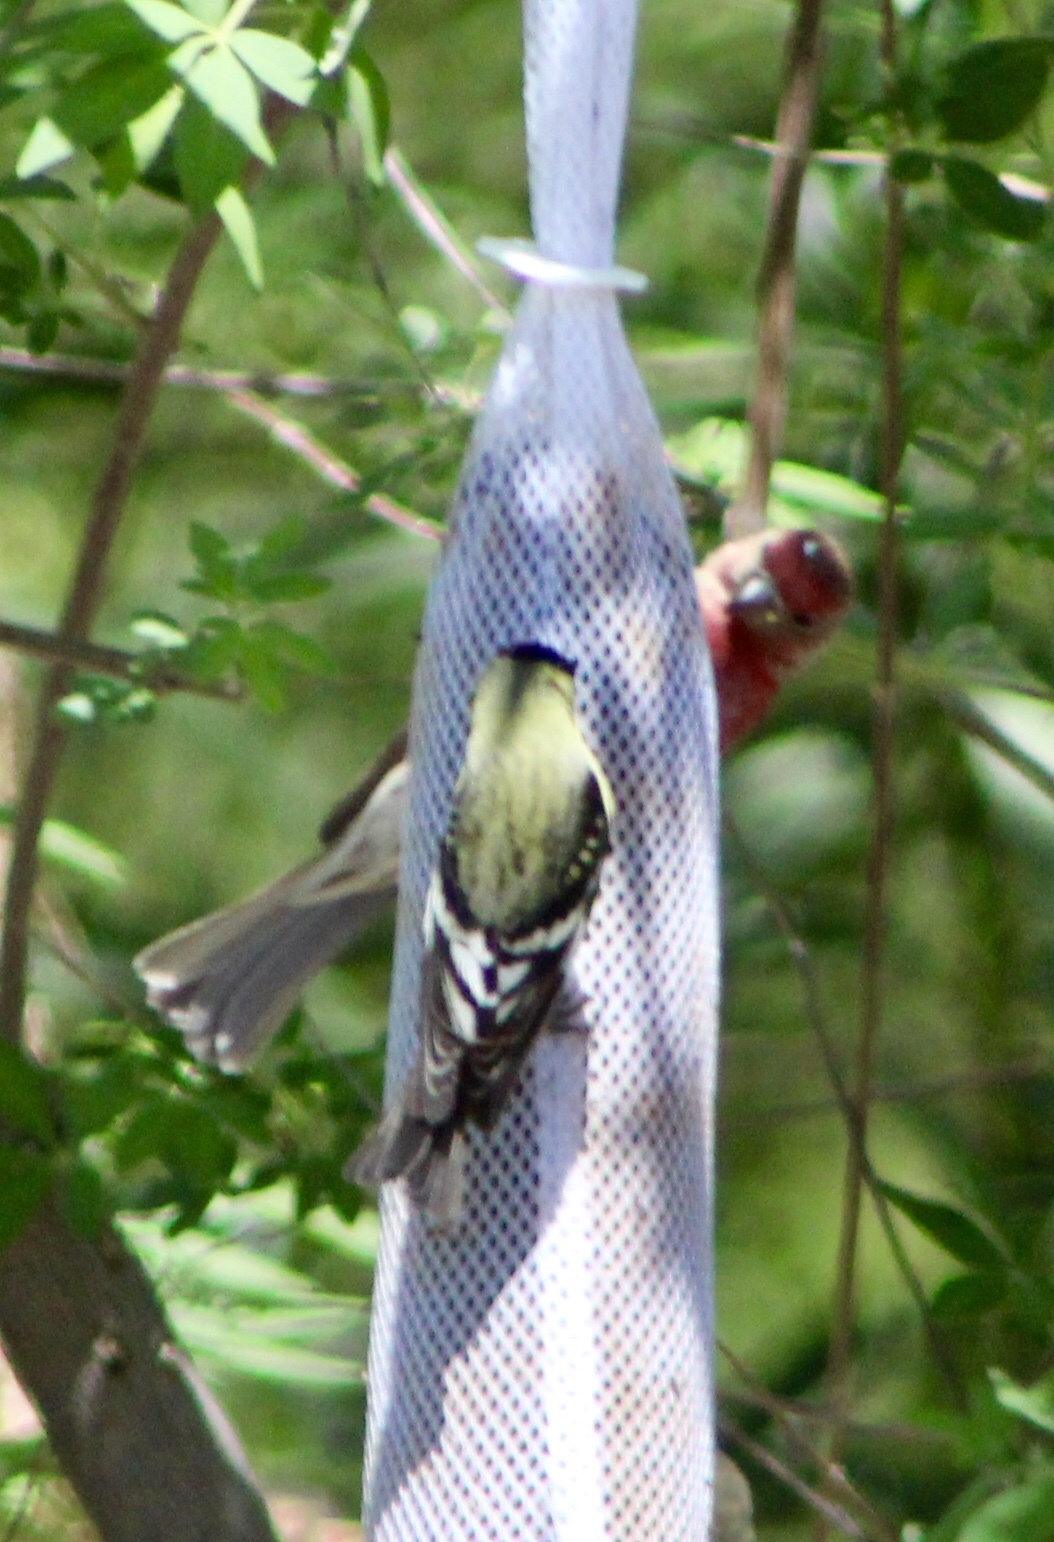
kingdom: Animalia
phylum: Chordata
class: Aves
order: Passeriformes
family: Fringillidae
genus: Haemorhous
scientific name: Haemorhous mexicanus
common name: House finch
